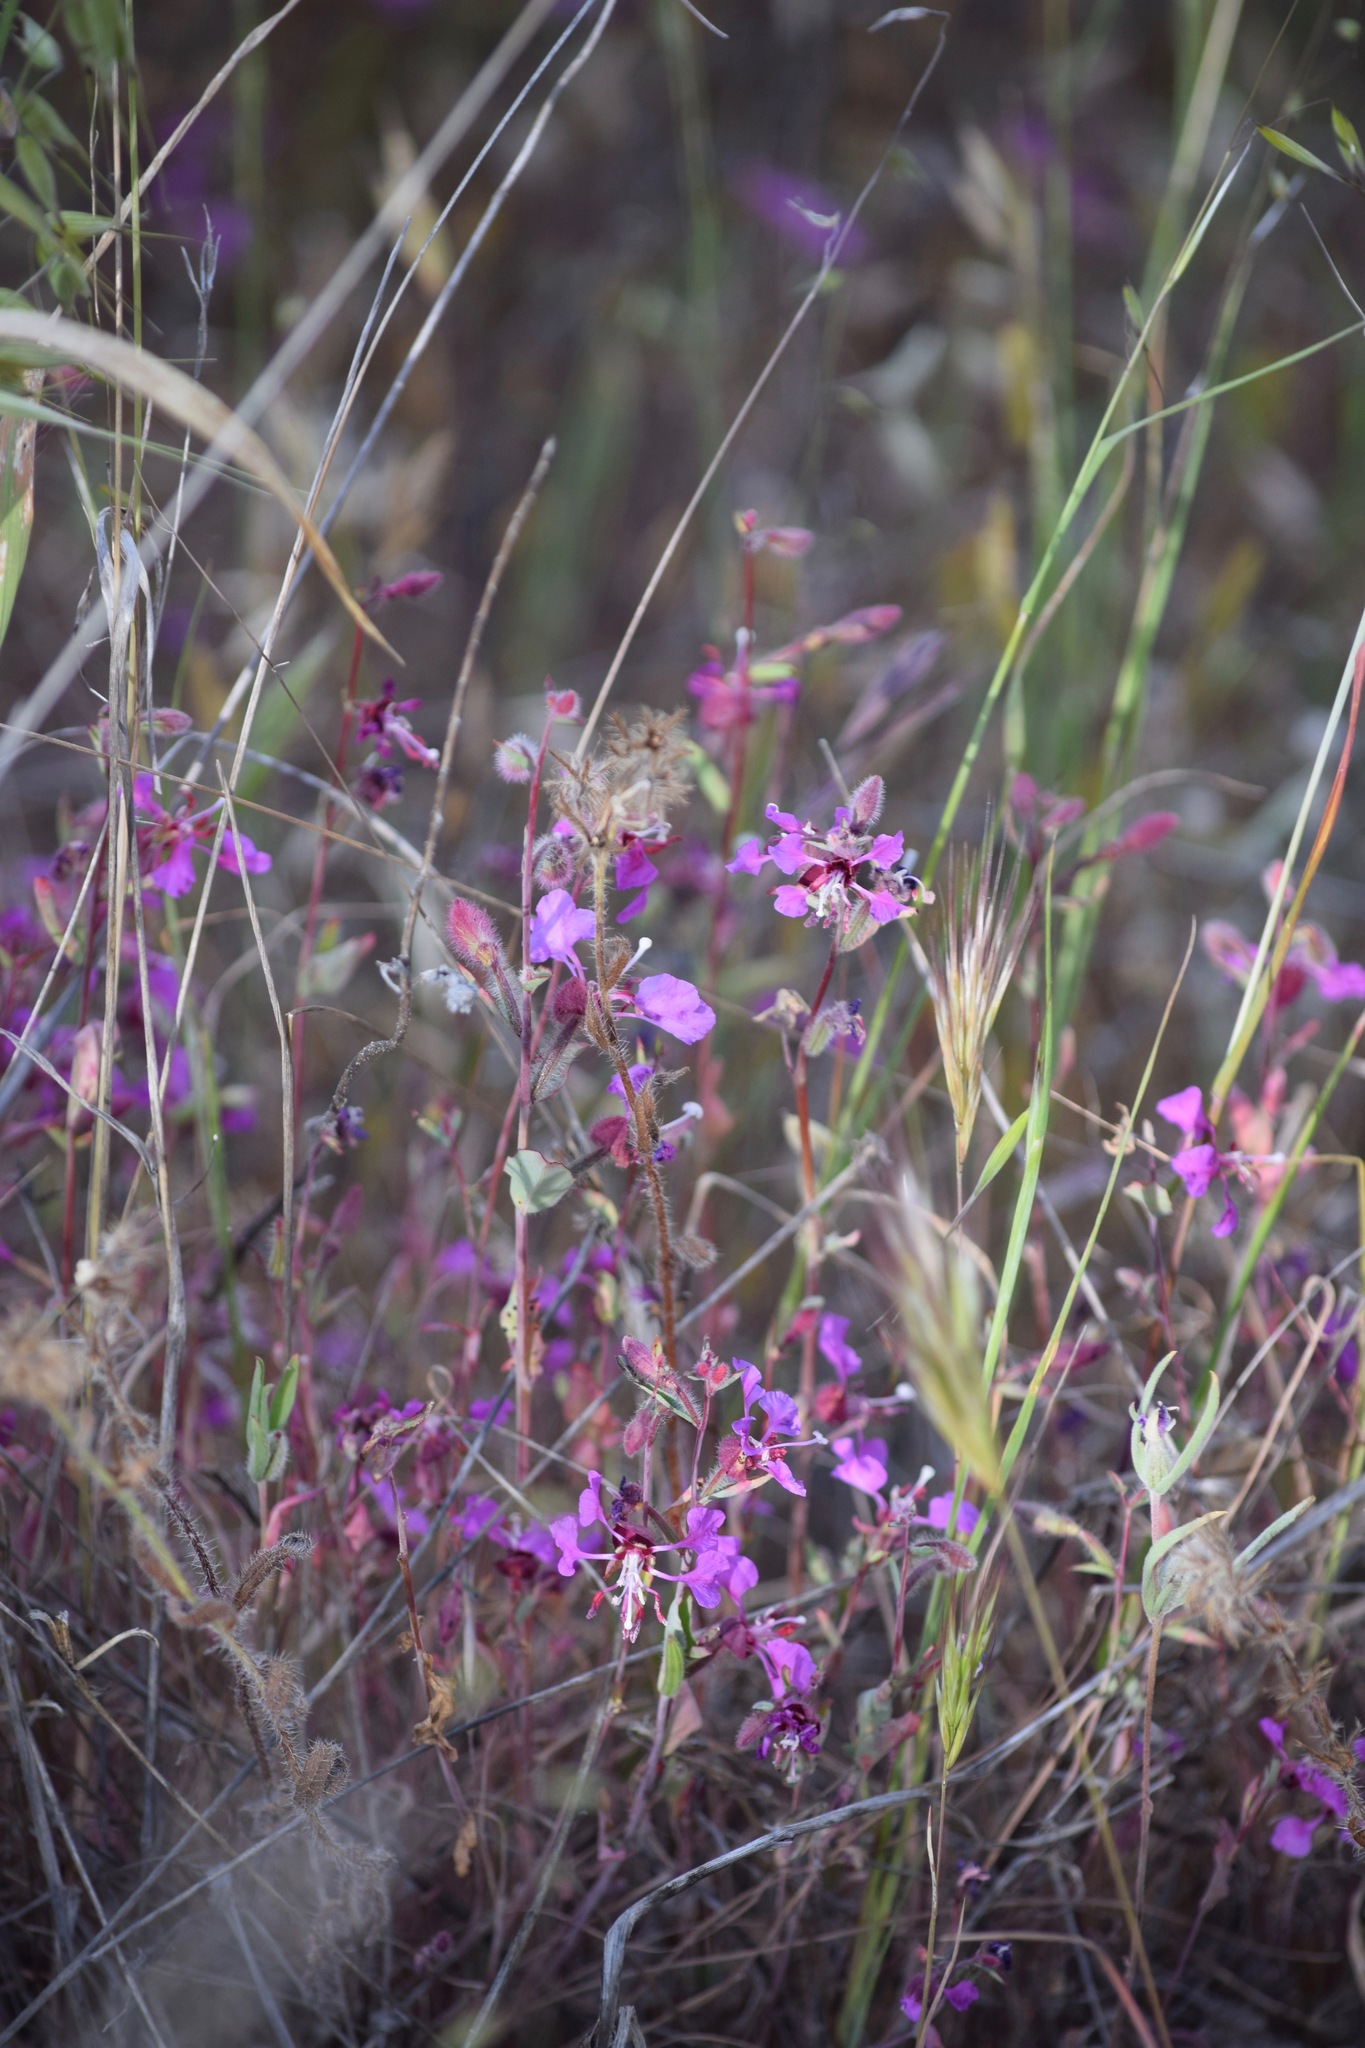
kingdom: Plantae
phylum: Tracheophyta
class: Magnoliopsida
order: Myrtales
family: Onagraceae
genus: Clarkia
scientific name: Clarkia unguiculata
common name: Clarkia
